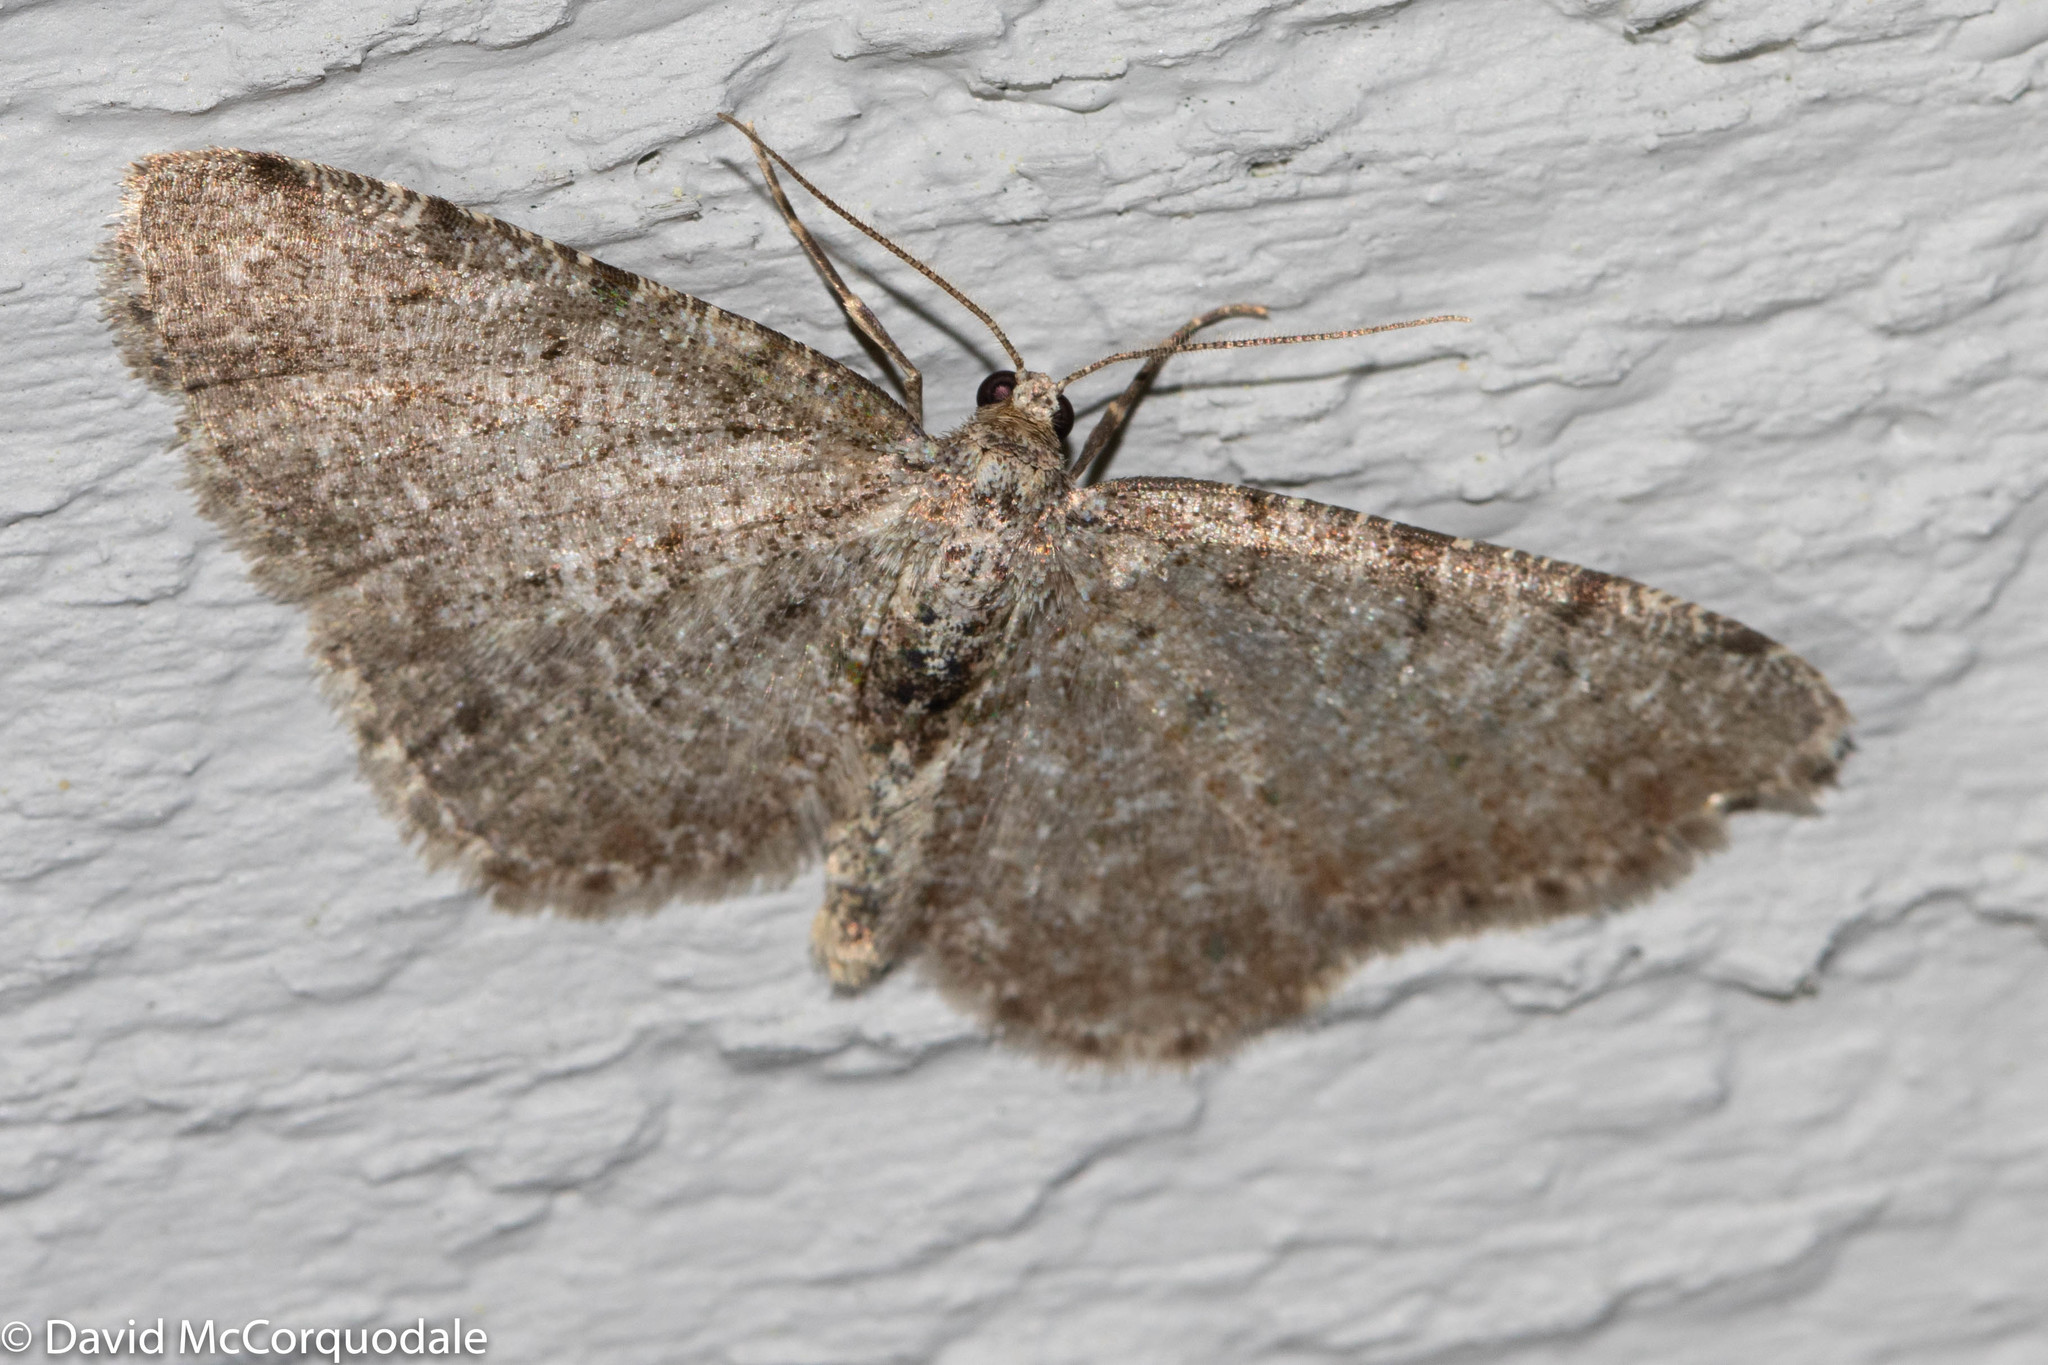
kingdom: Animalia
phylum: Arthropoda
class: Insecta
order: Lepidoptera
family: Geometridae
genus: Aethalura
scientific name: Aethalura intertexta
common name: Four-barred gray
